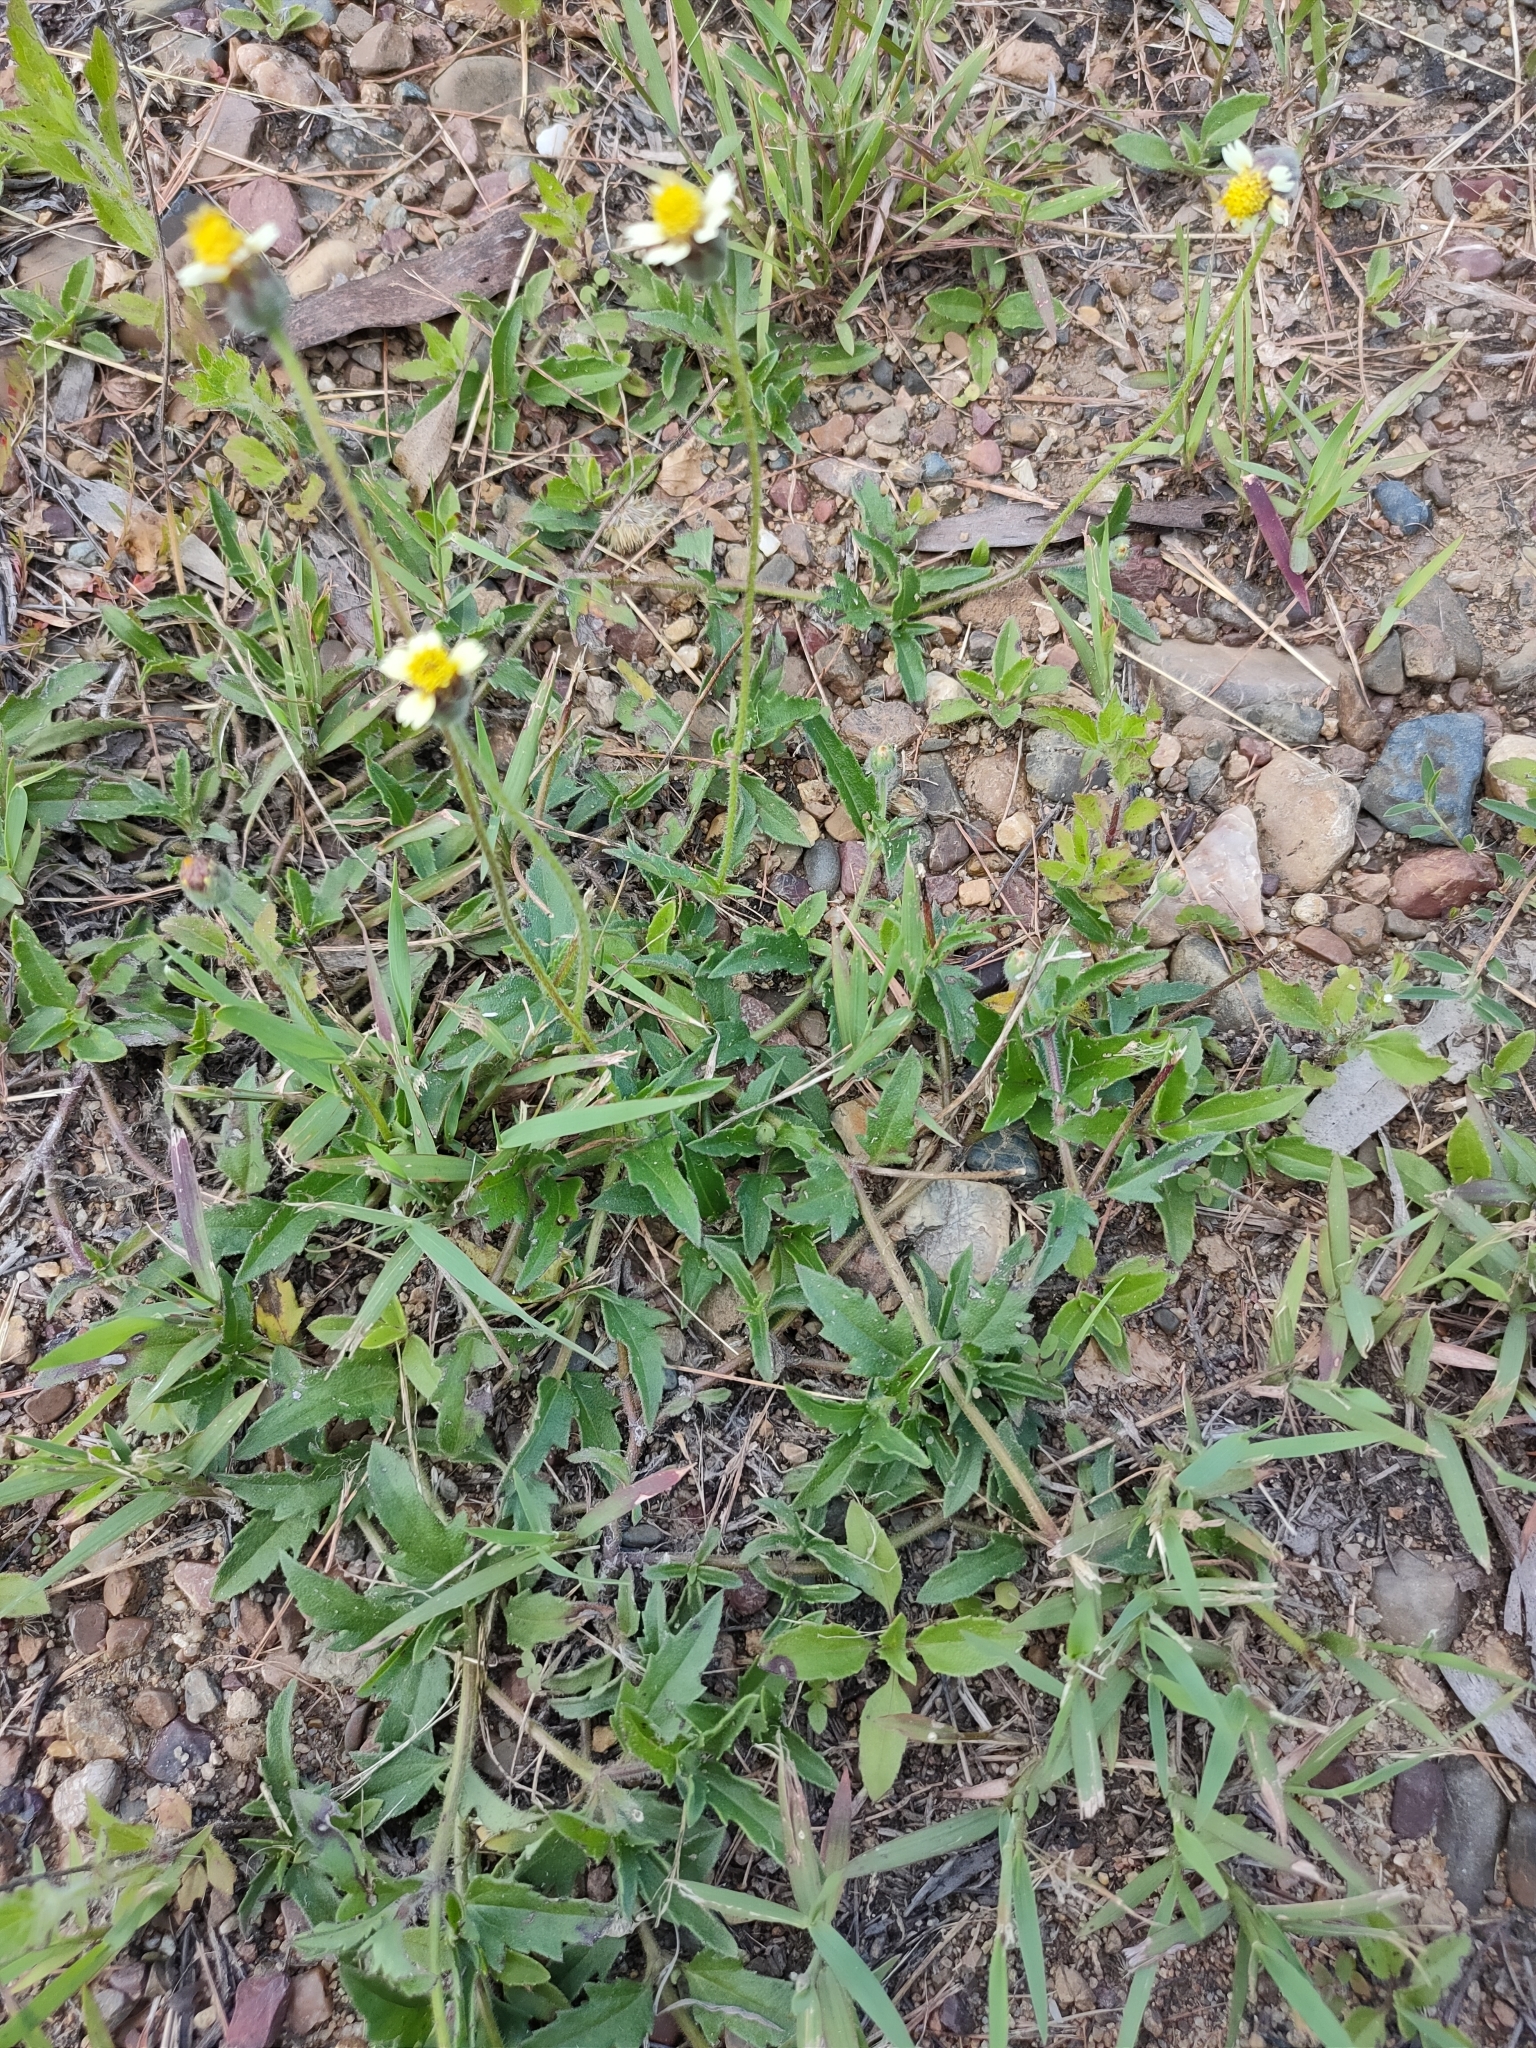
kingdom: Plantae
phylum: Tracheophyta
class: Magnoliopsida
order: Asterales
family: Asteraceae
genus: Tridax
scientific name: Tridax procumbens
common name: Coatbuttons
